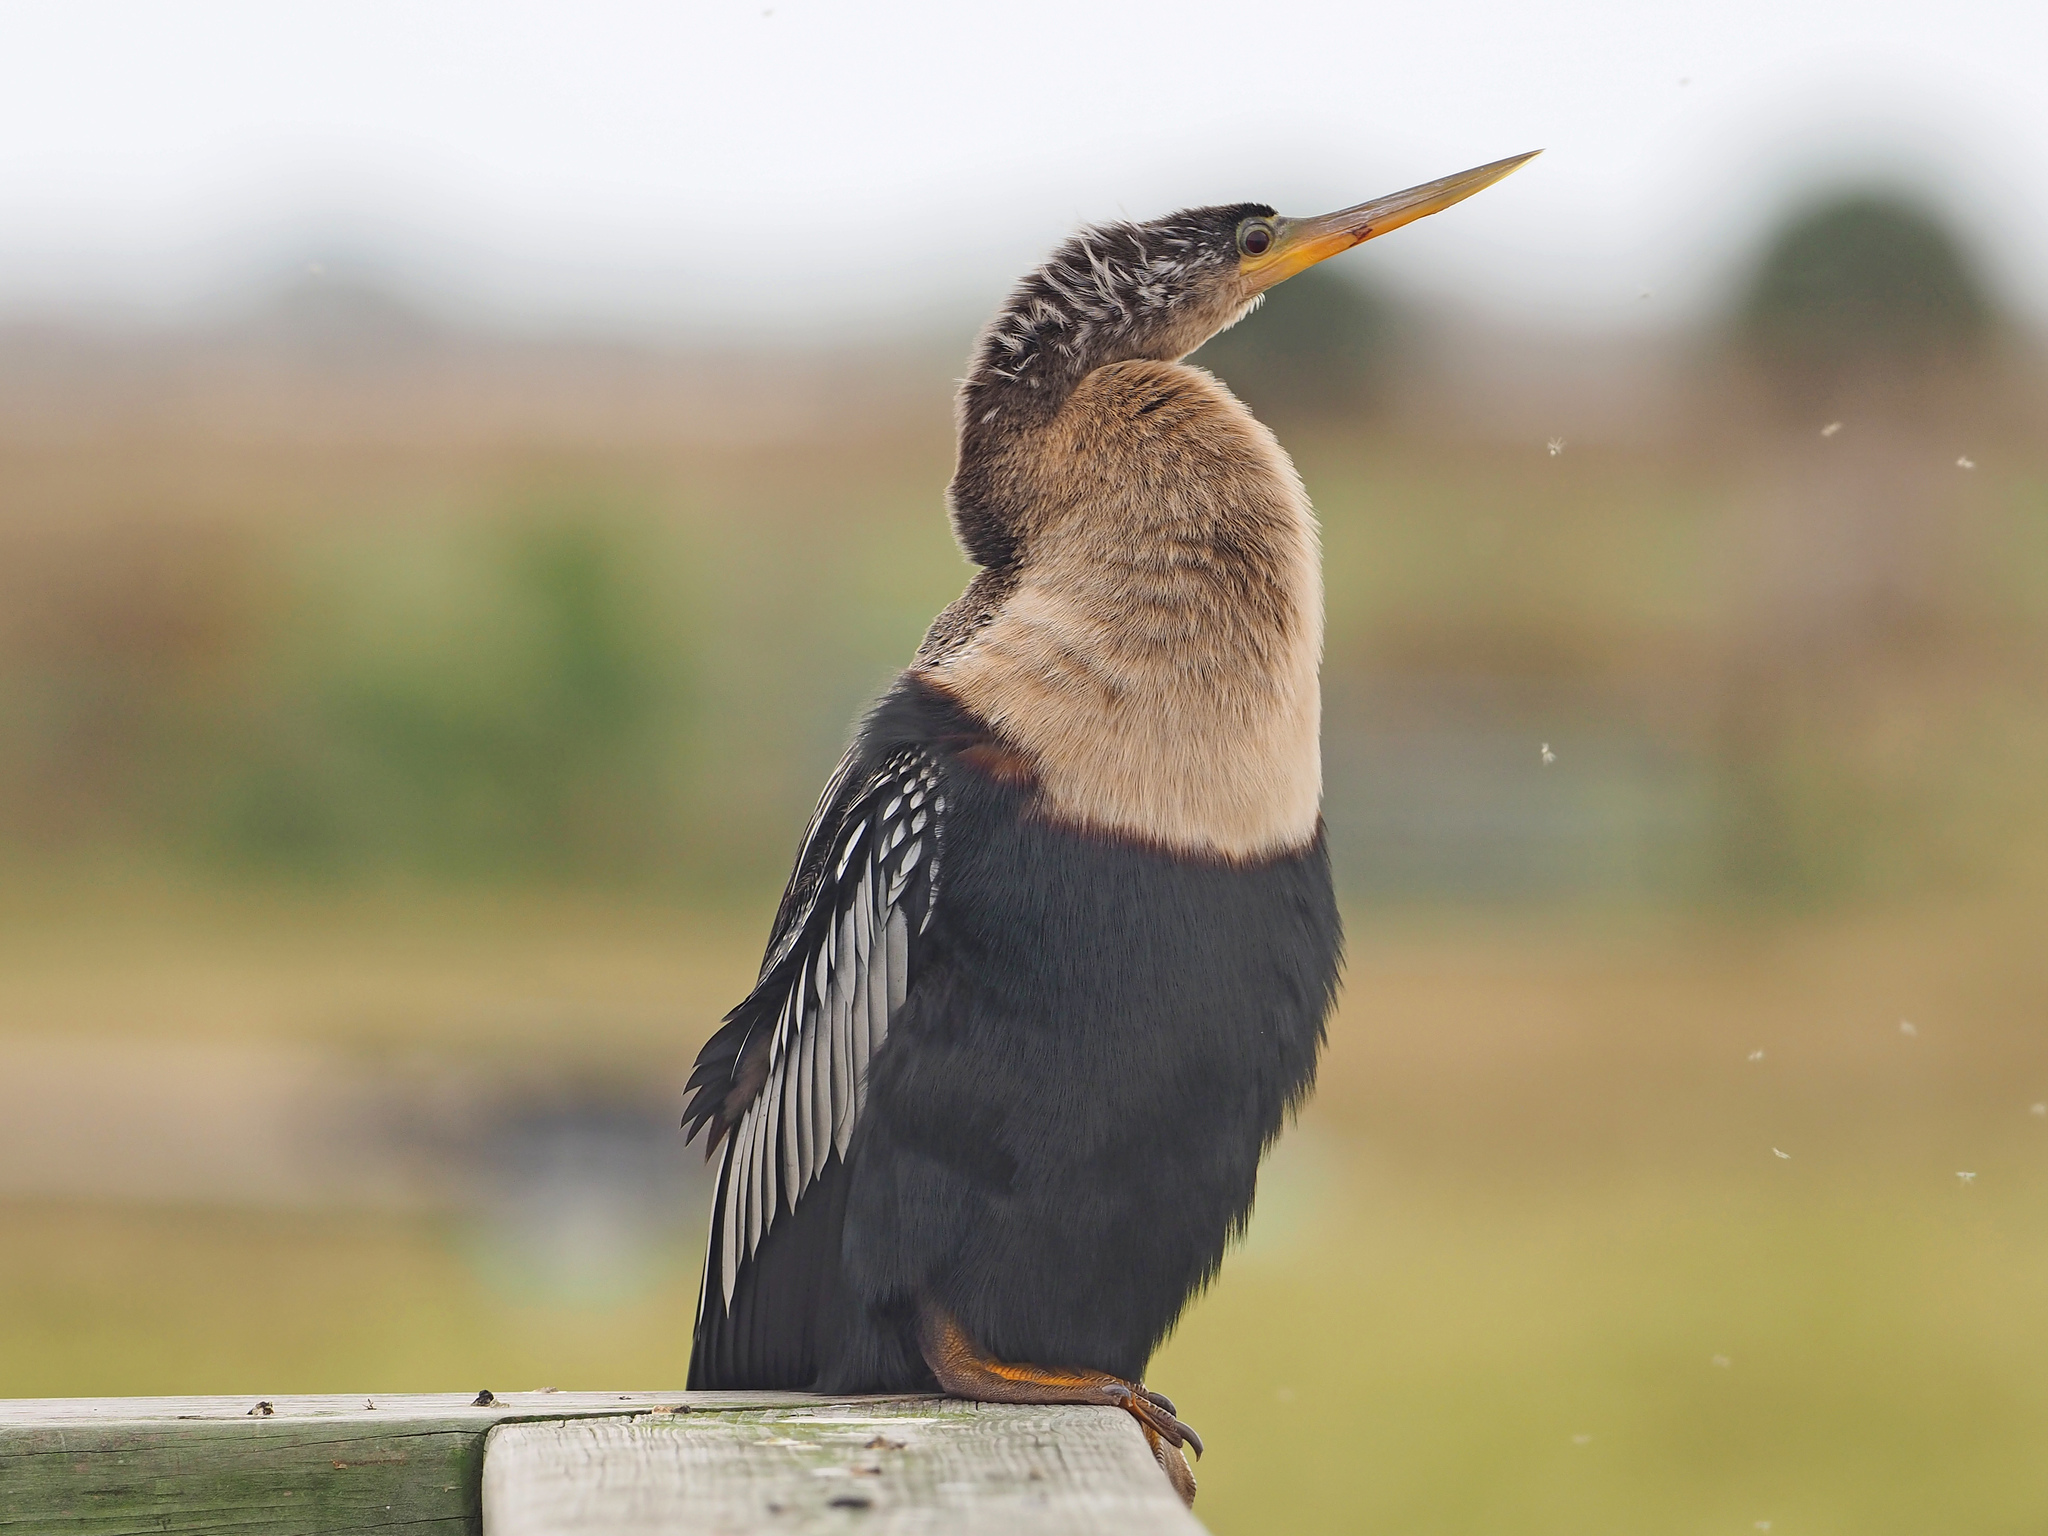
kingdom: Animalia
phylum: Chordata
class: Aves
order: Suliformes
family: Anhingidae
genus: Anhinga
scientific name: Anhinga anhinga
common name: Anhinga
